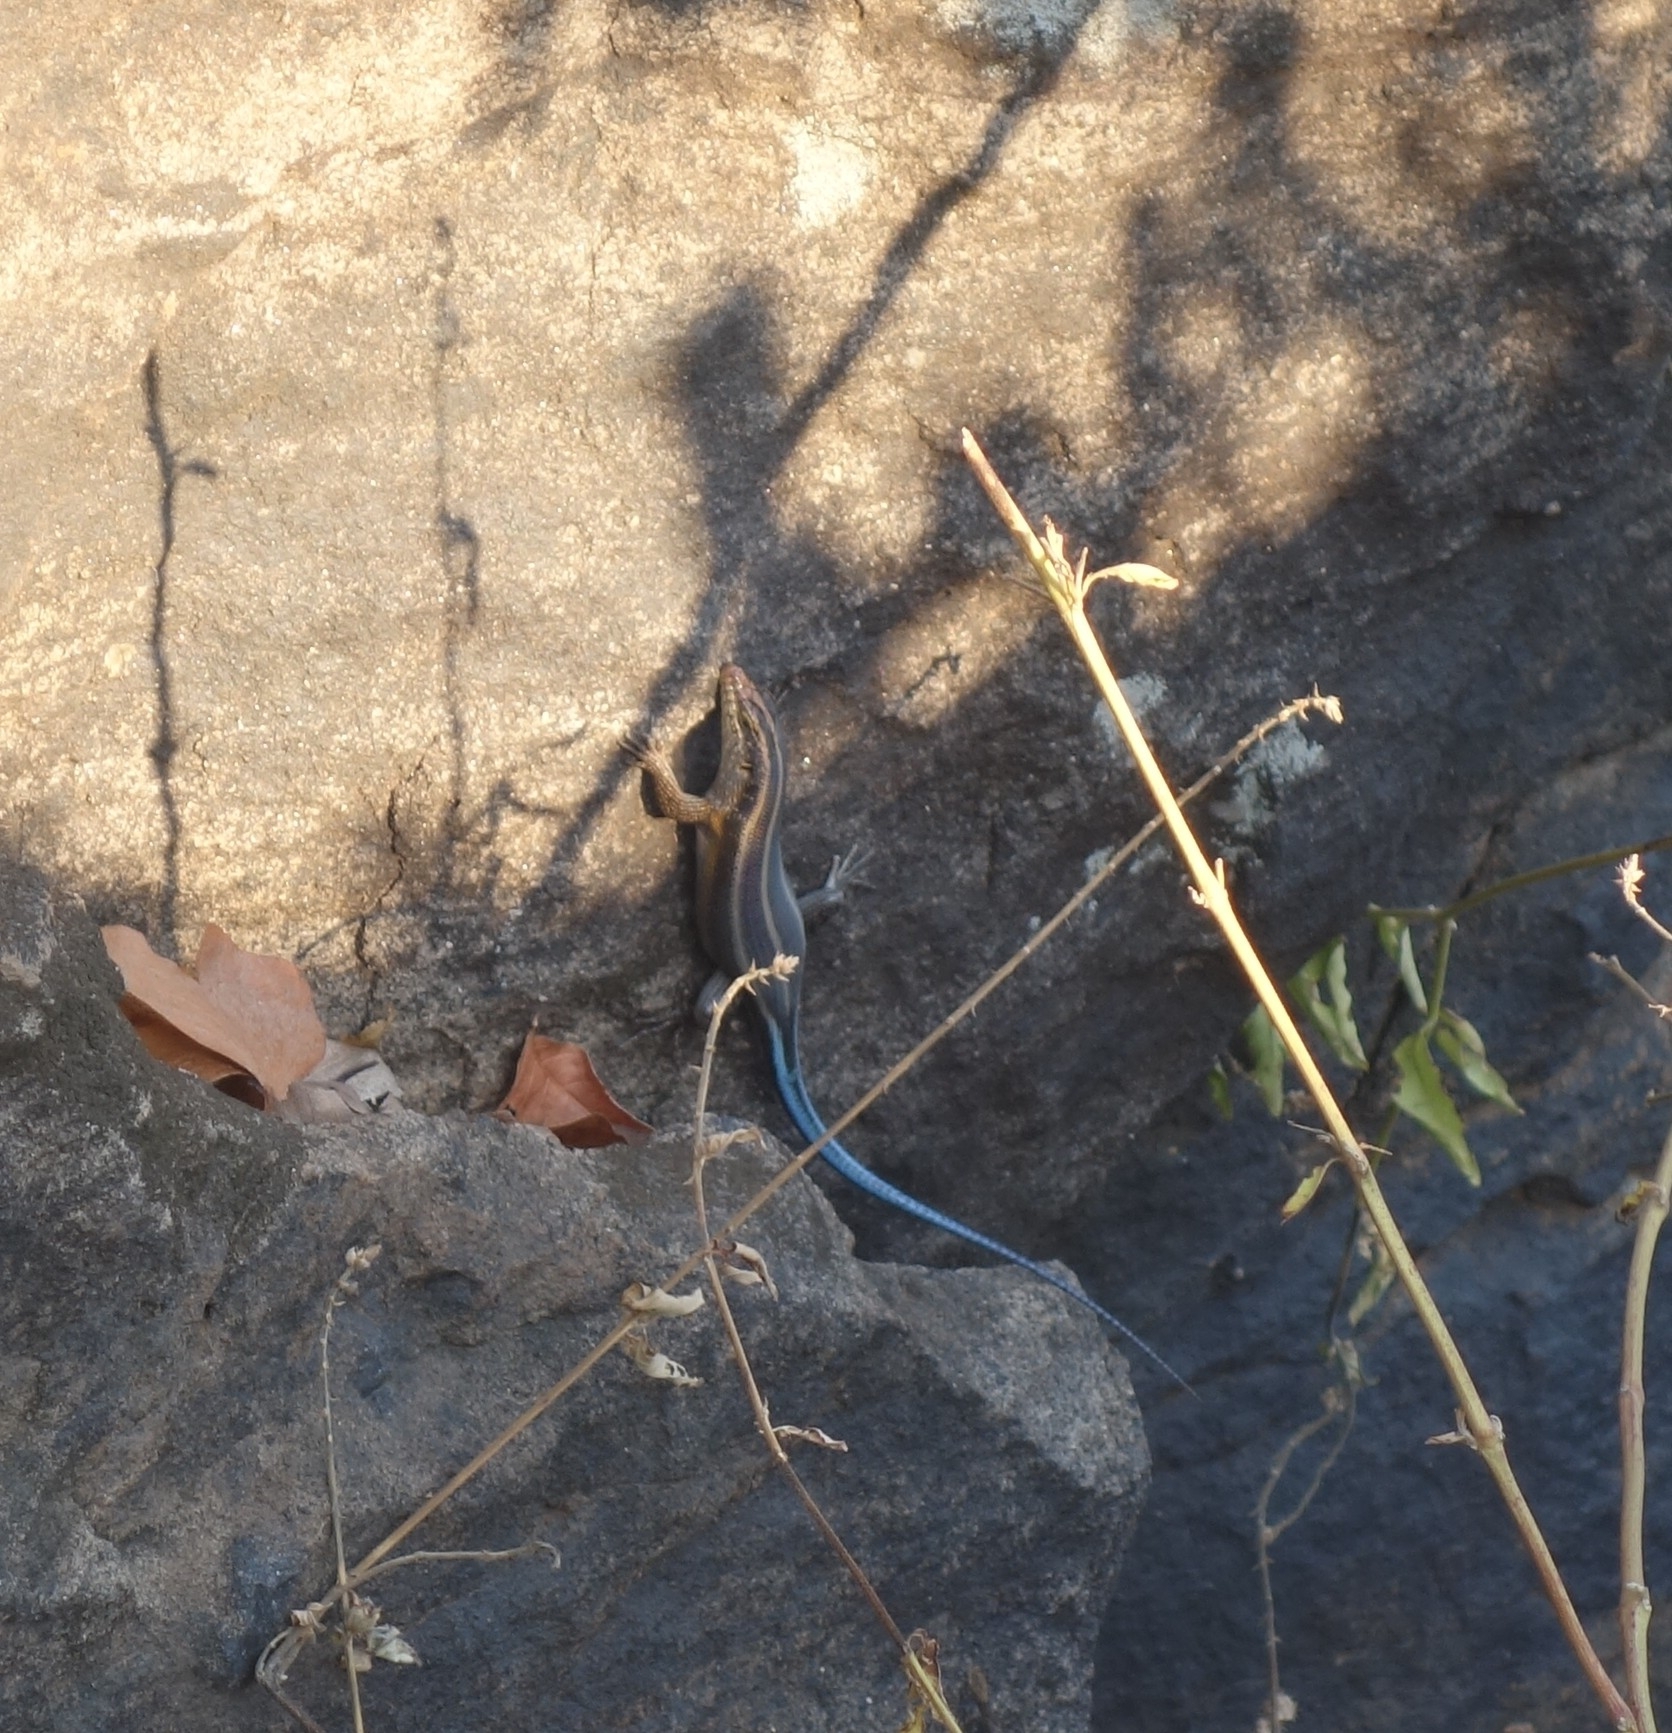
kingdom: Animalia
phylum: Chordata
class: Squamata
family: Scincidae
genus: Trachylepis
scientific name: Trachylepis margaritifera
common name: Rainbow skink
